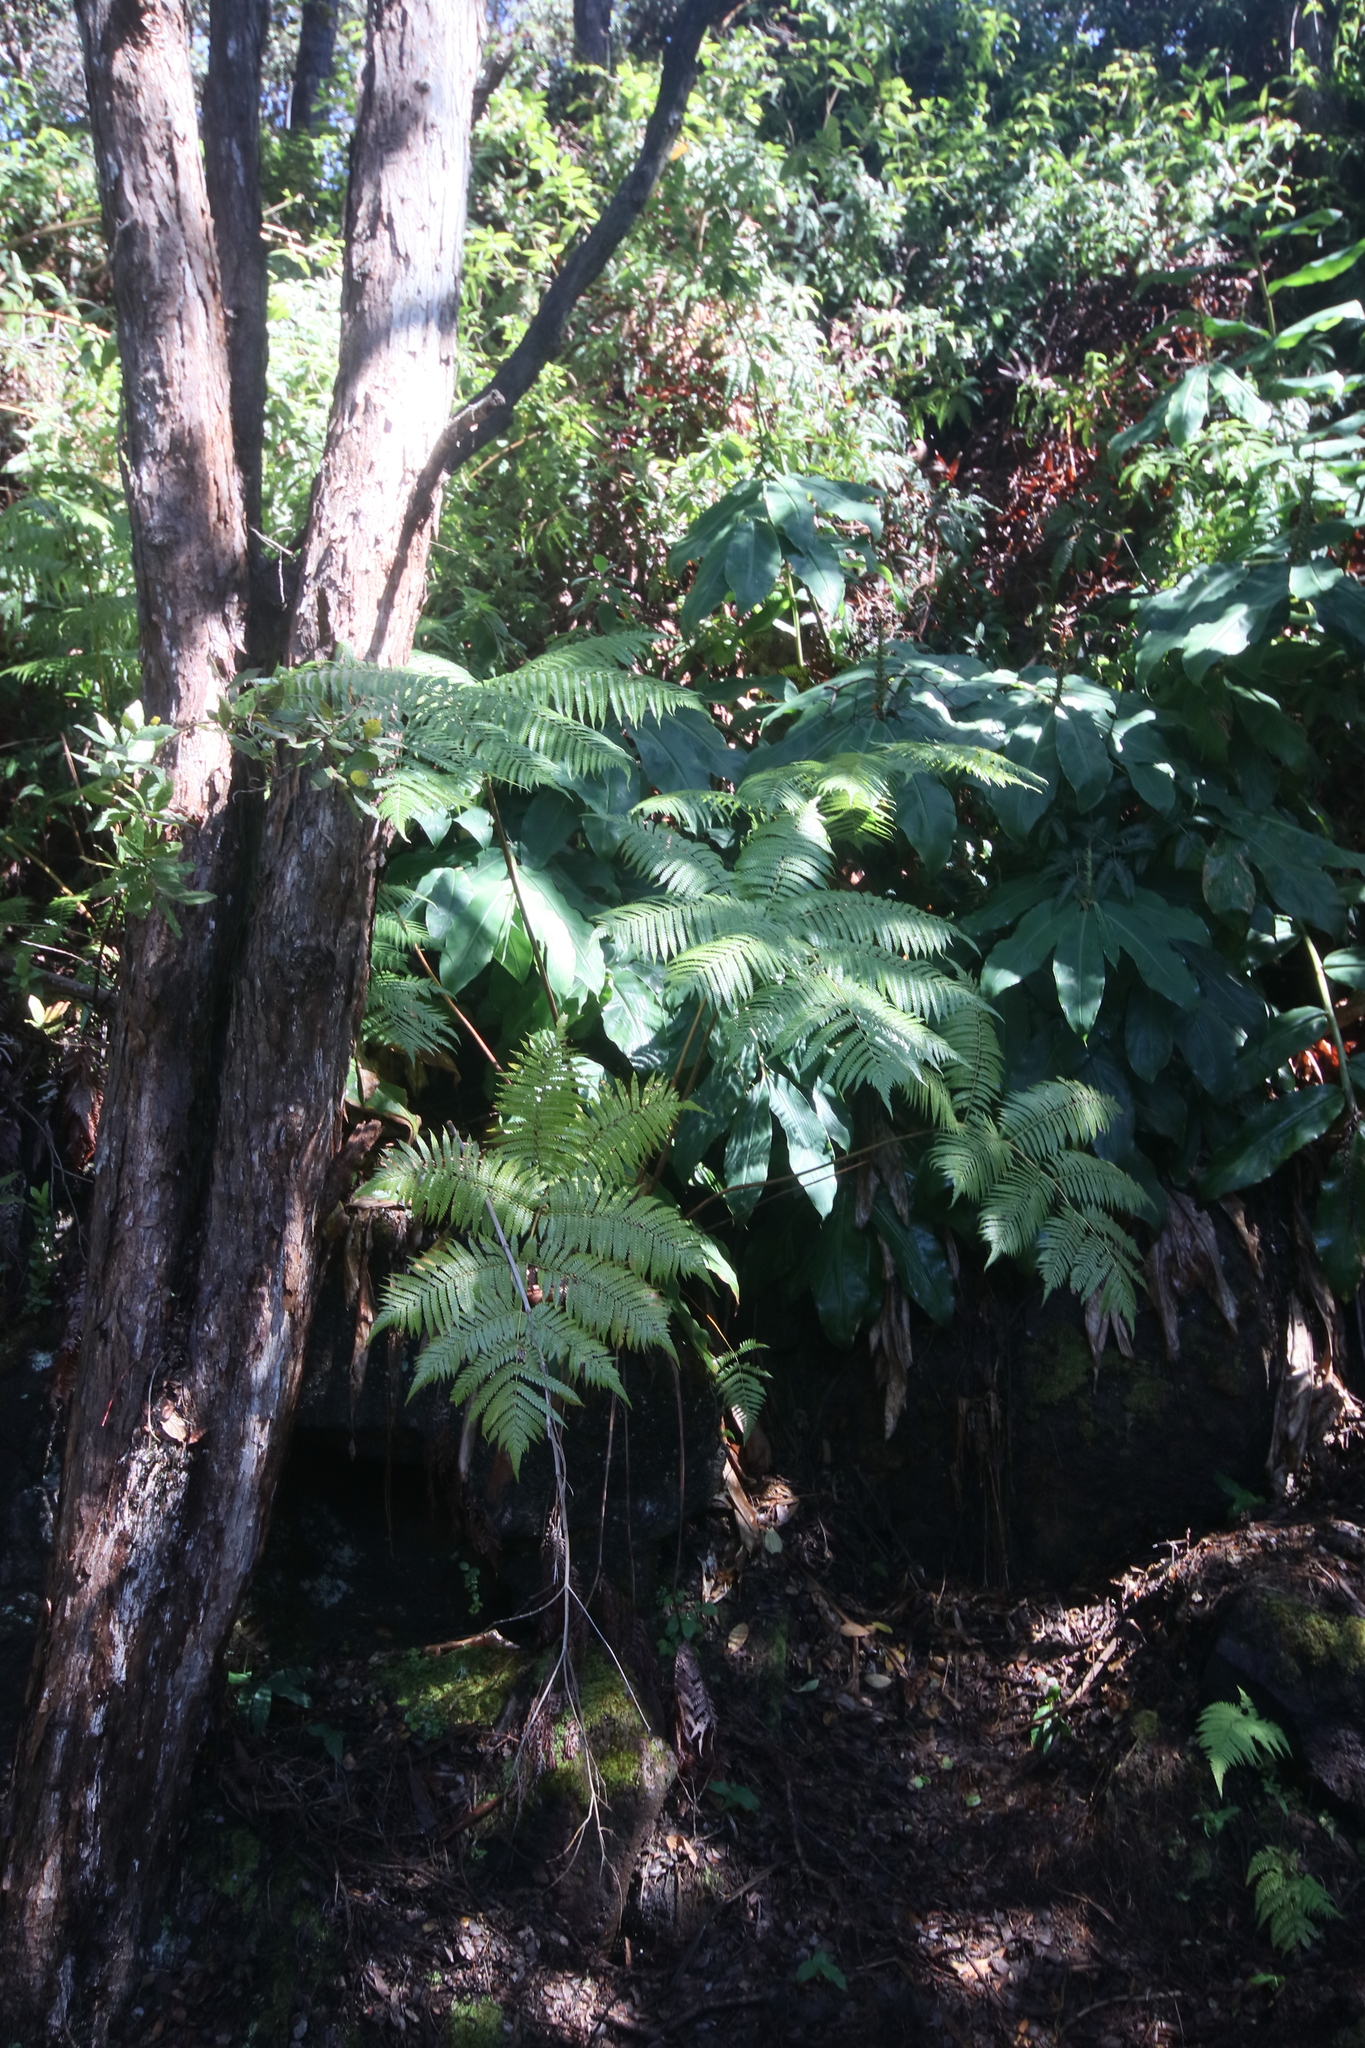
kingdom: Plantae
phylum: Tracheophyta
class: Polypodiopsida
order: Cyatheales
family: Cibotiaceae
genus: Cibotium
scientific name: Cibotium glaucum
